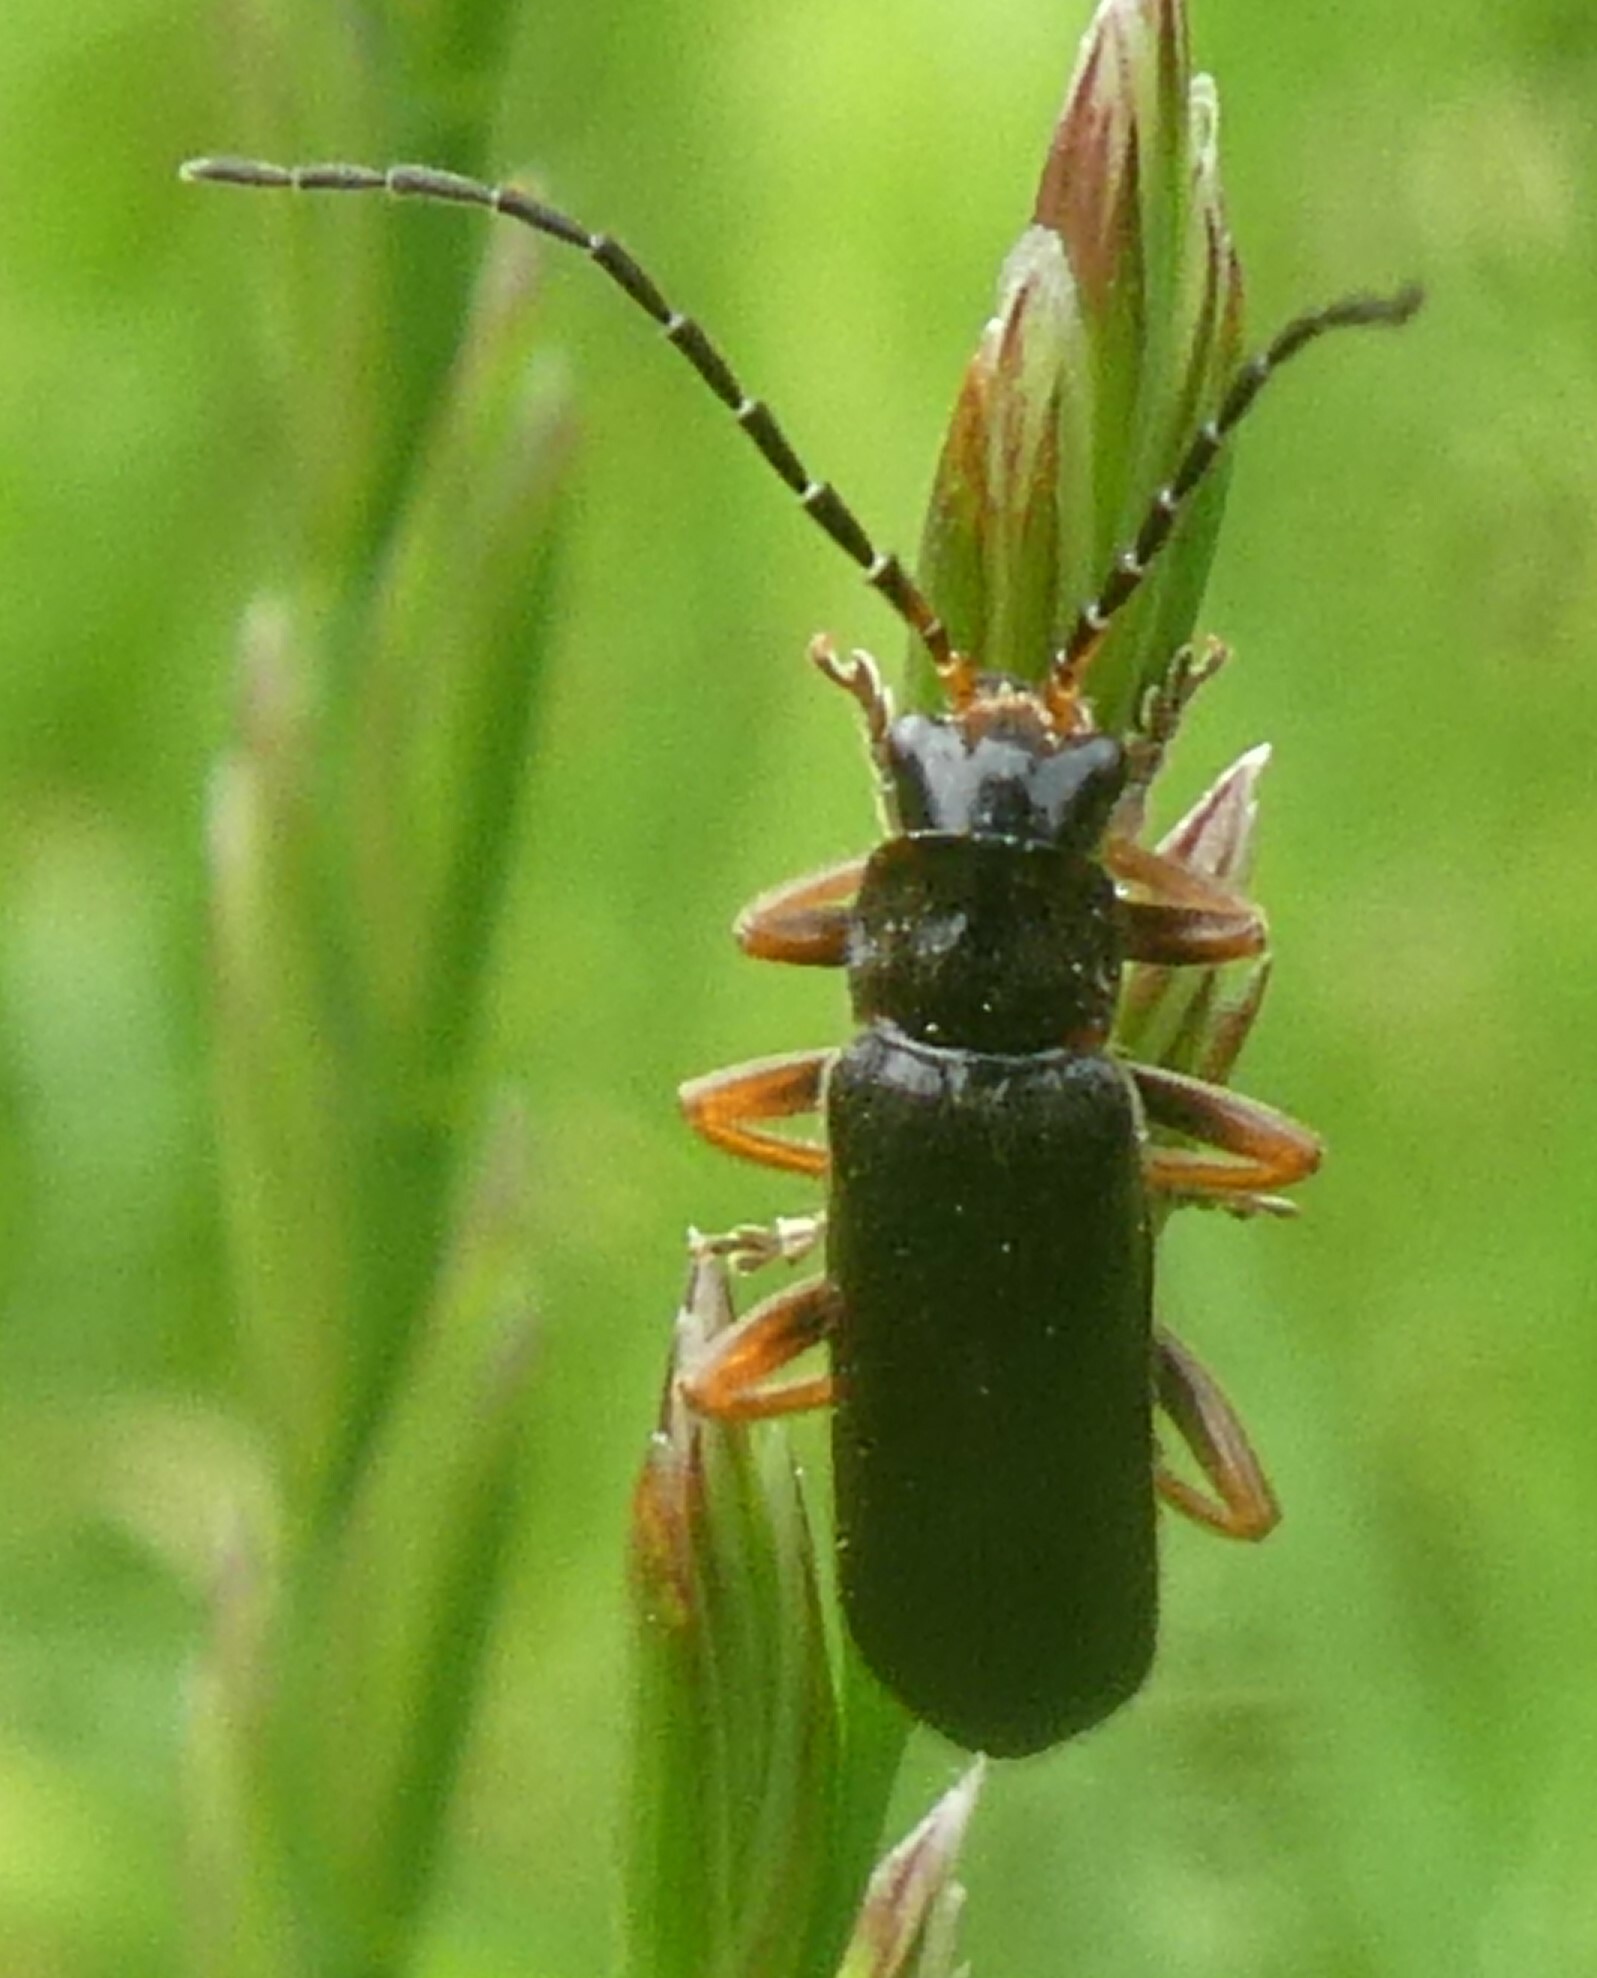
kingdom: Animalia
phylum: Arthropoda
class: Insecta
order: Coleoptera
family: Cantharidae
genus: Cantharis
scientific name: Cantharis flavilabris
